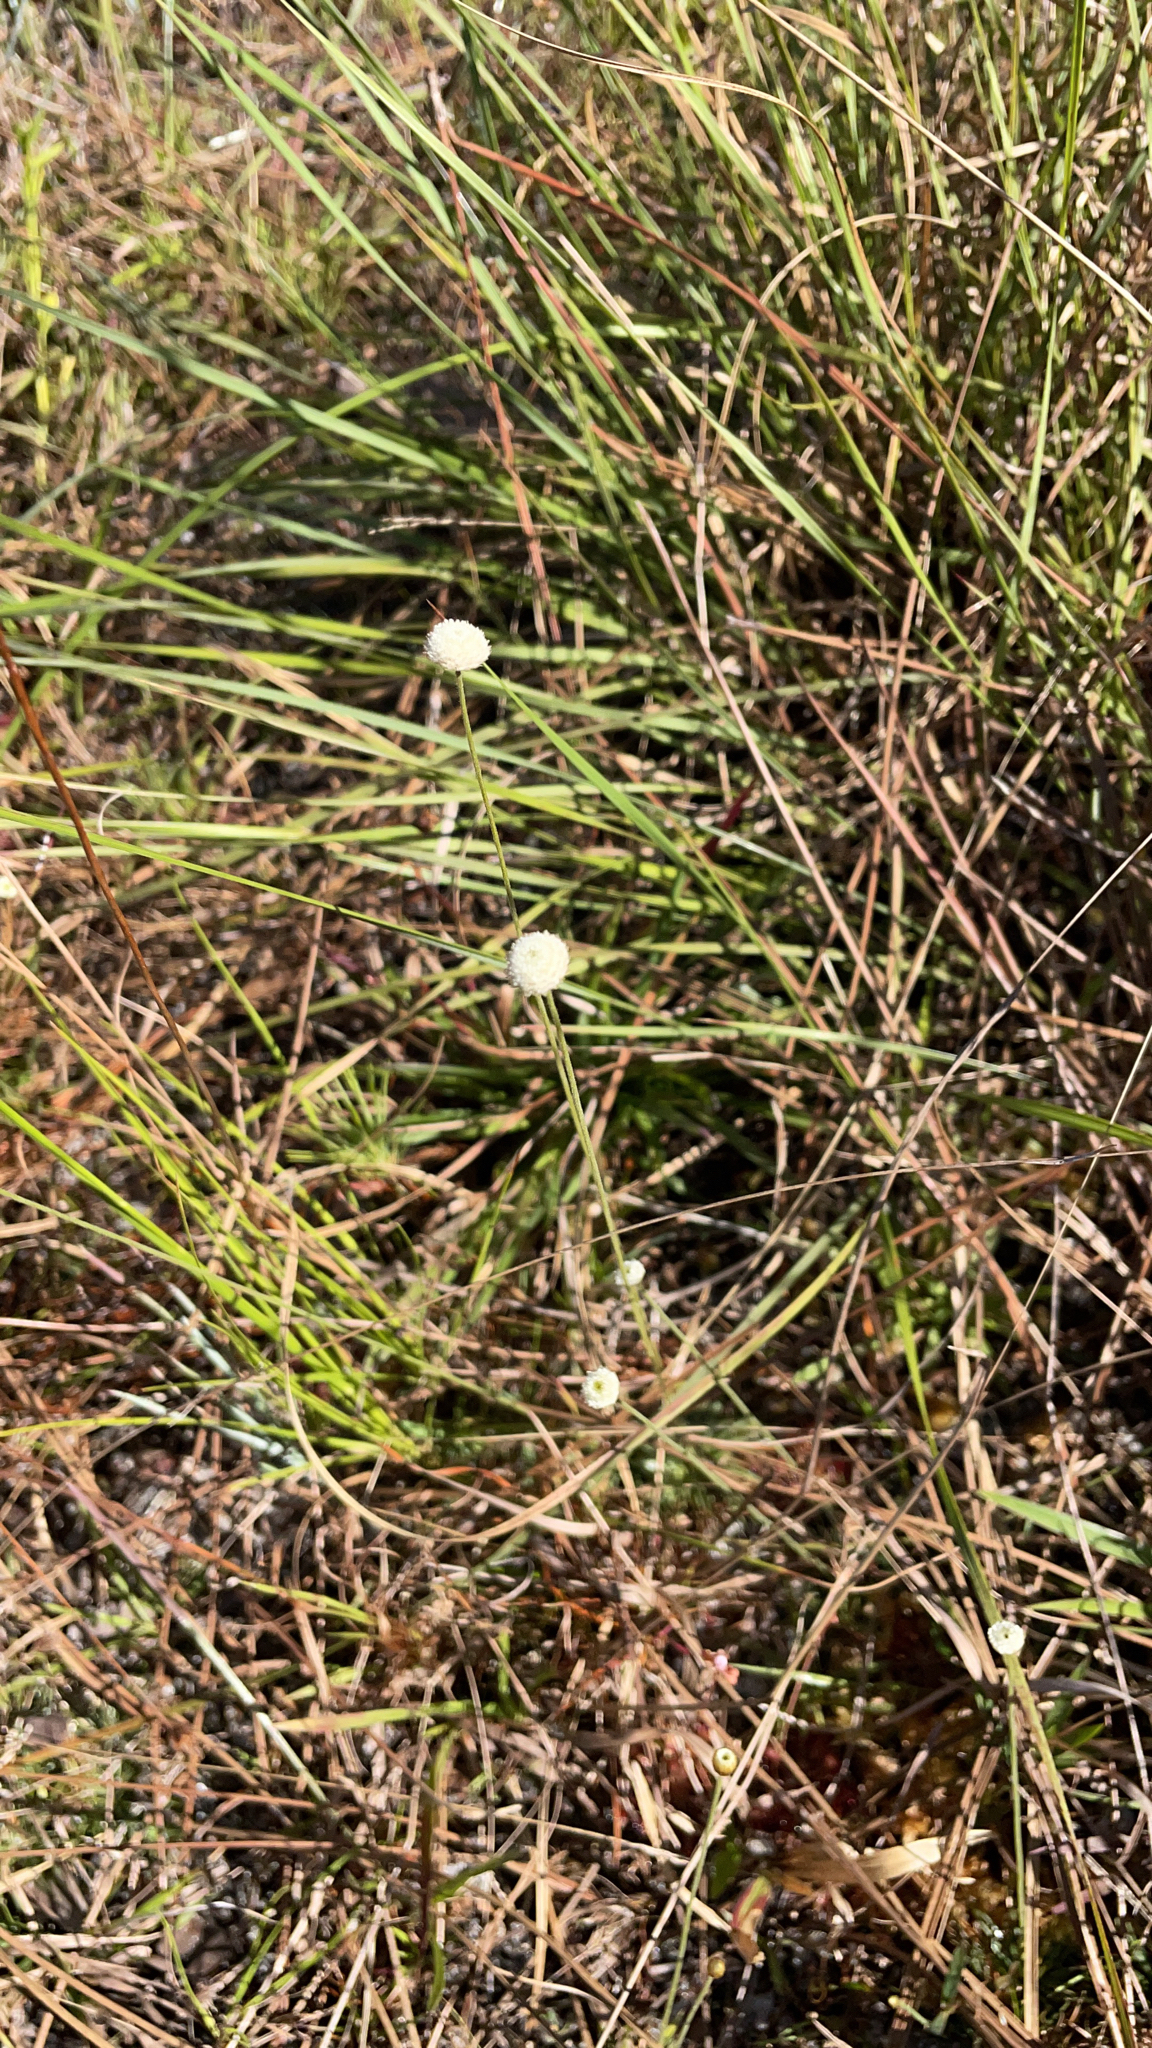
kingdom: Plantae
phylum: Tracheophyta
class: Liliopsida
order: Poales
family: Eriocaulaceae
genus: Syngonanthus
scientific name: Syngonanthus flavidulus
